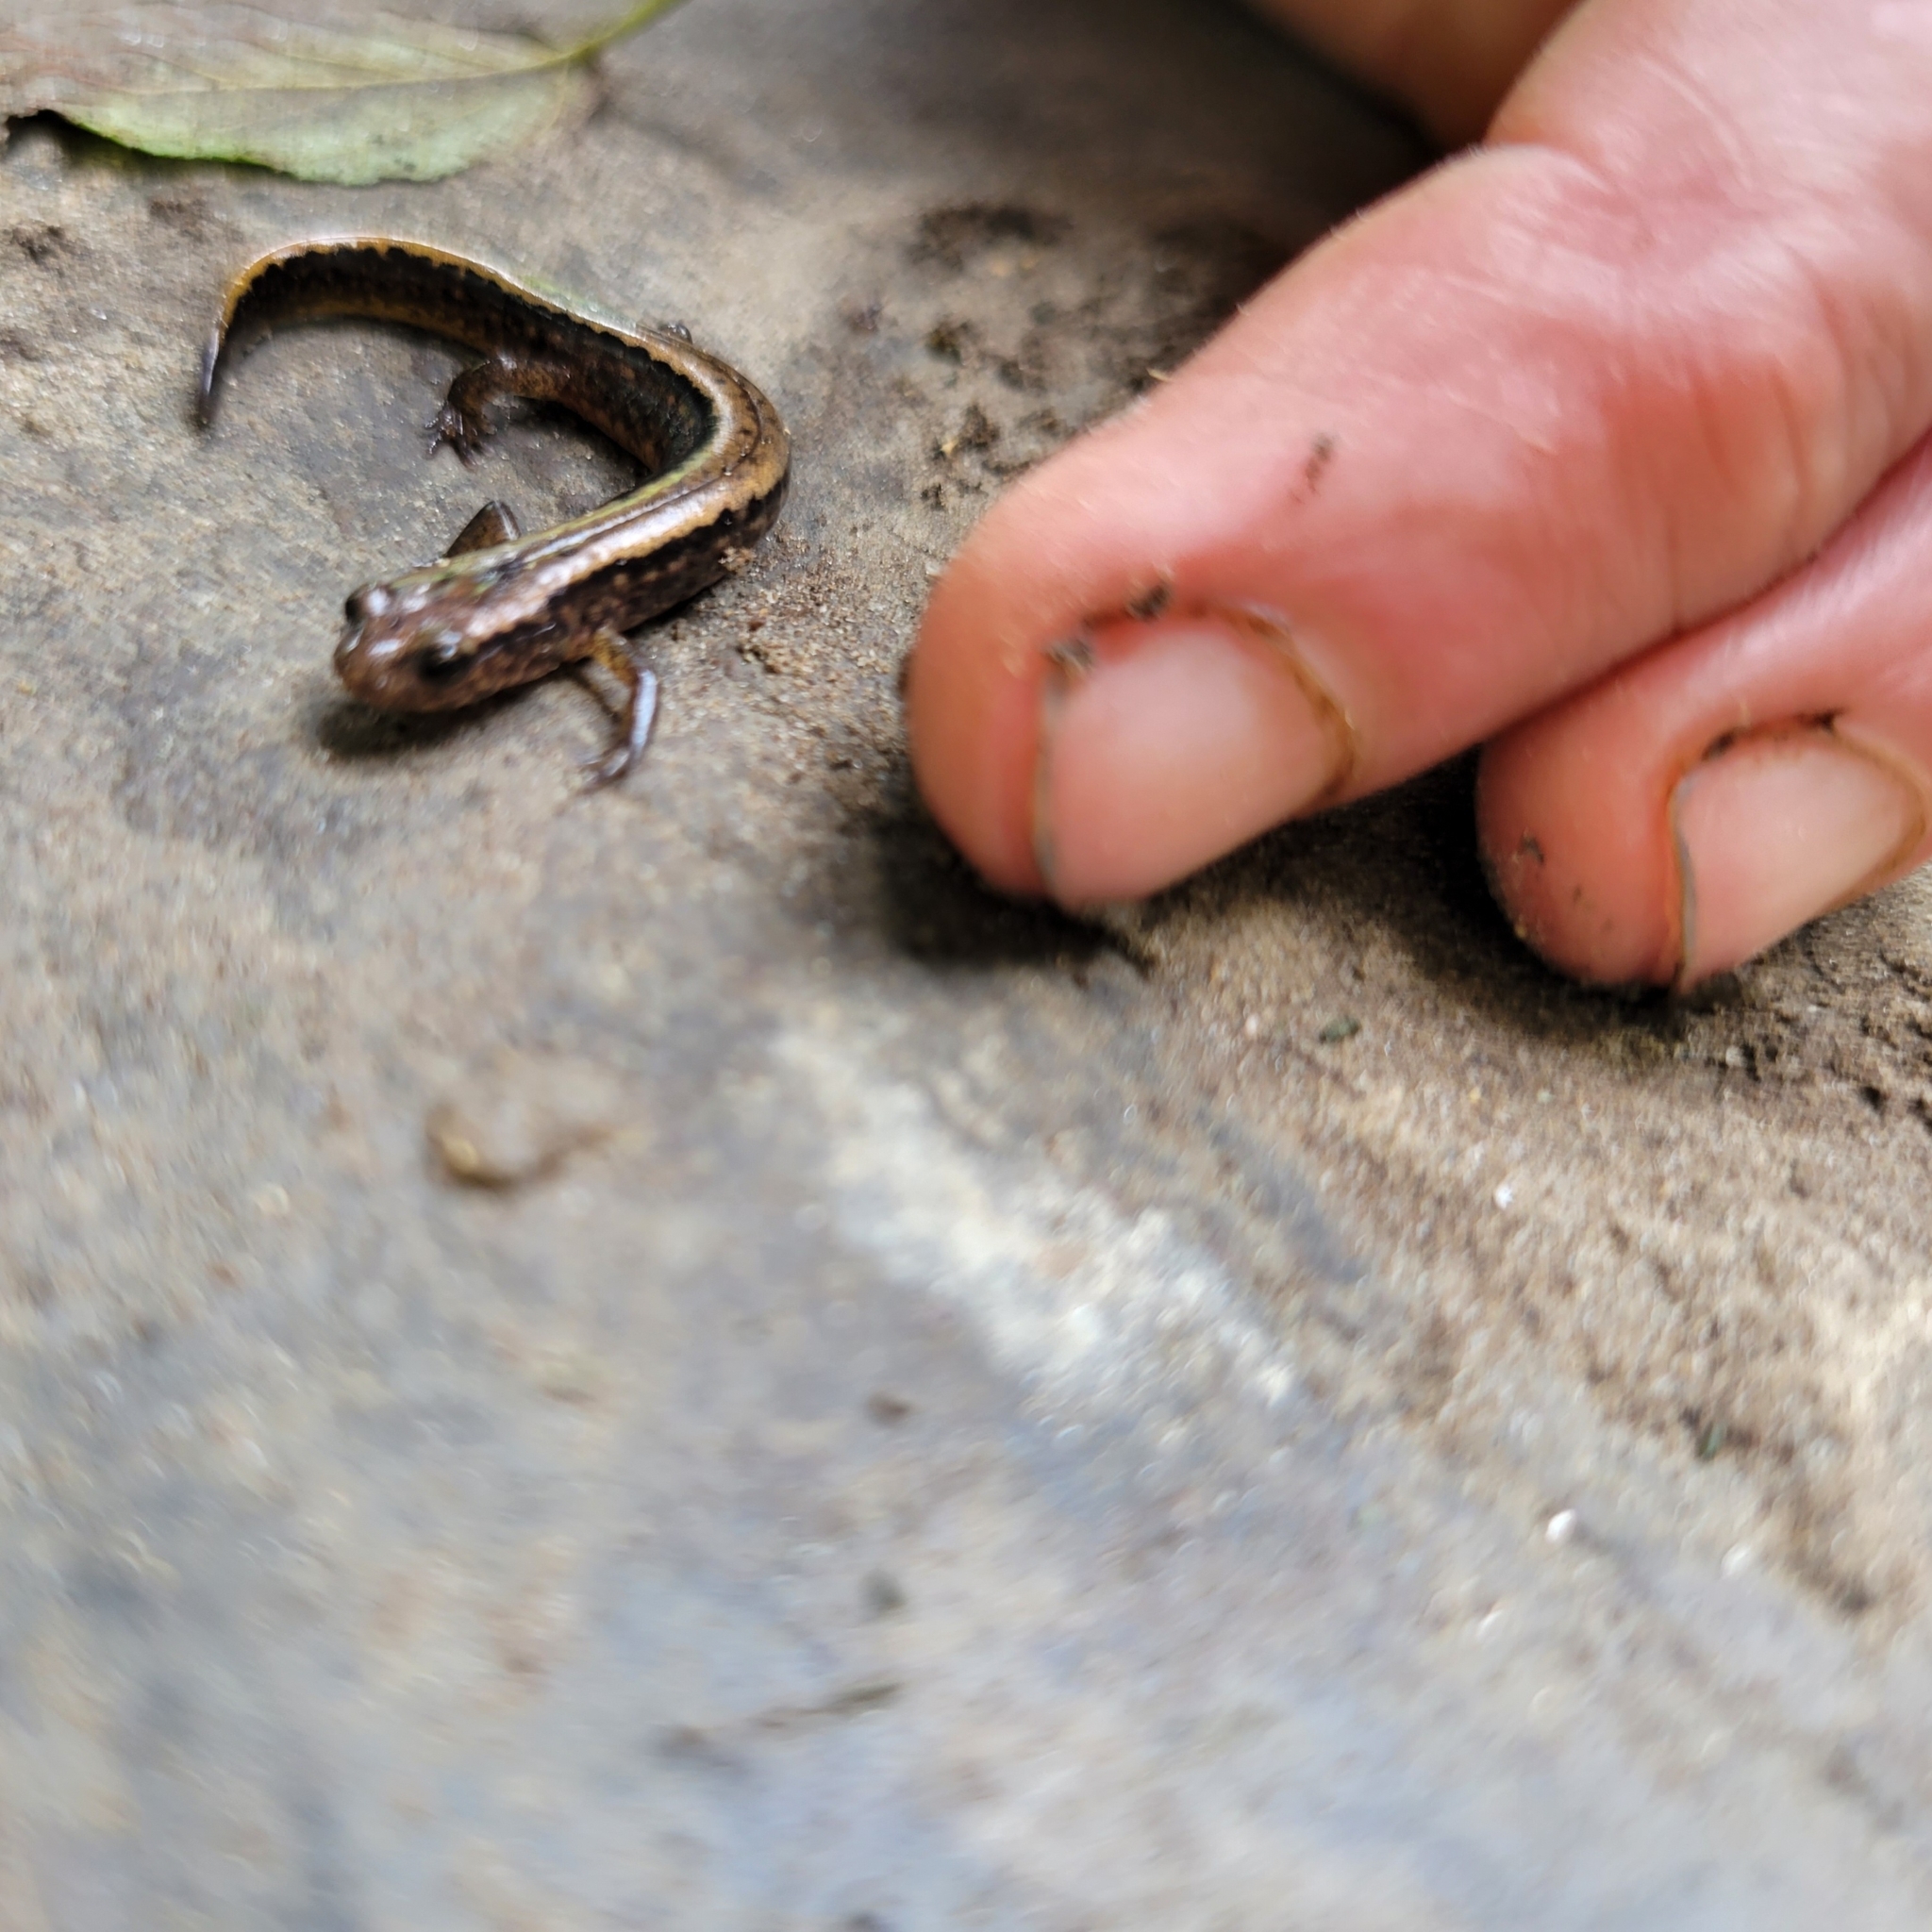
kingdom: Animalia
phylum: Chordata
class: Amphibia
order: Caudata
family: Plethodontidae
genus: Eurycea
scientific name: Eurycea bislineata
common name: Northern two-lined salamander
